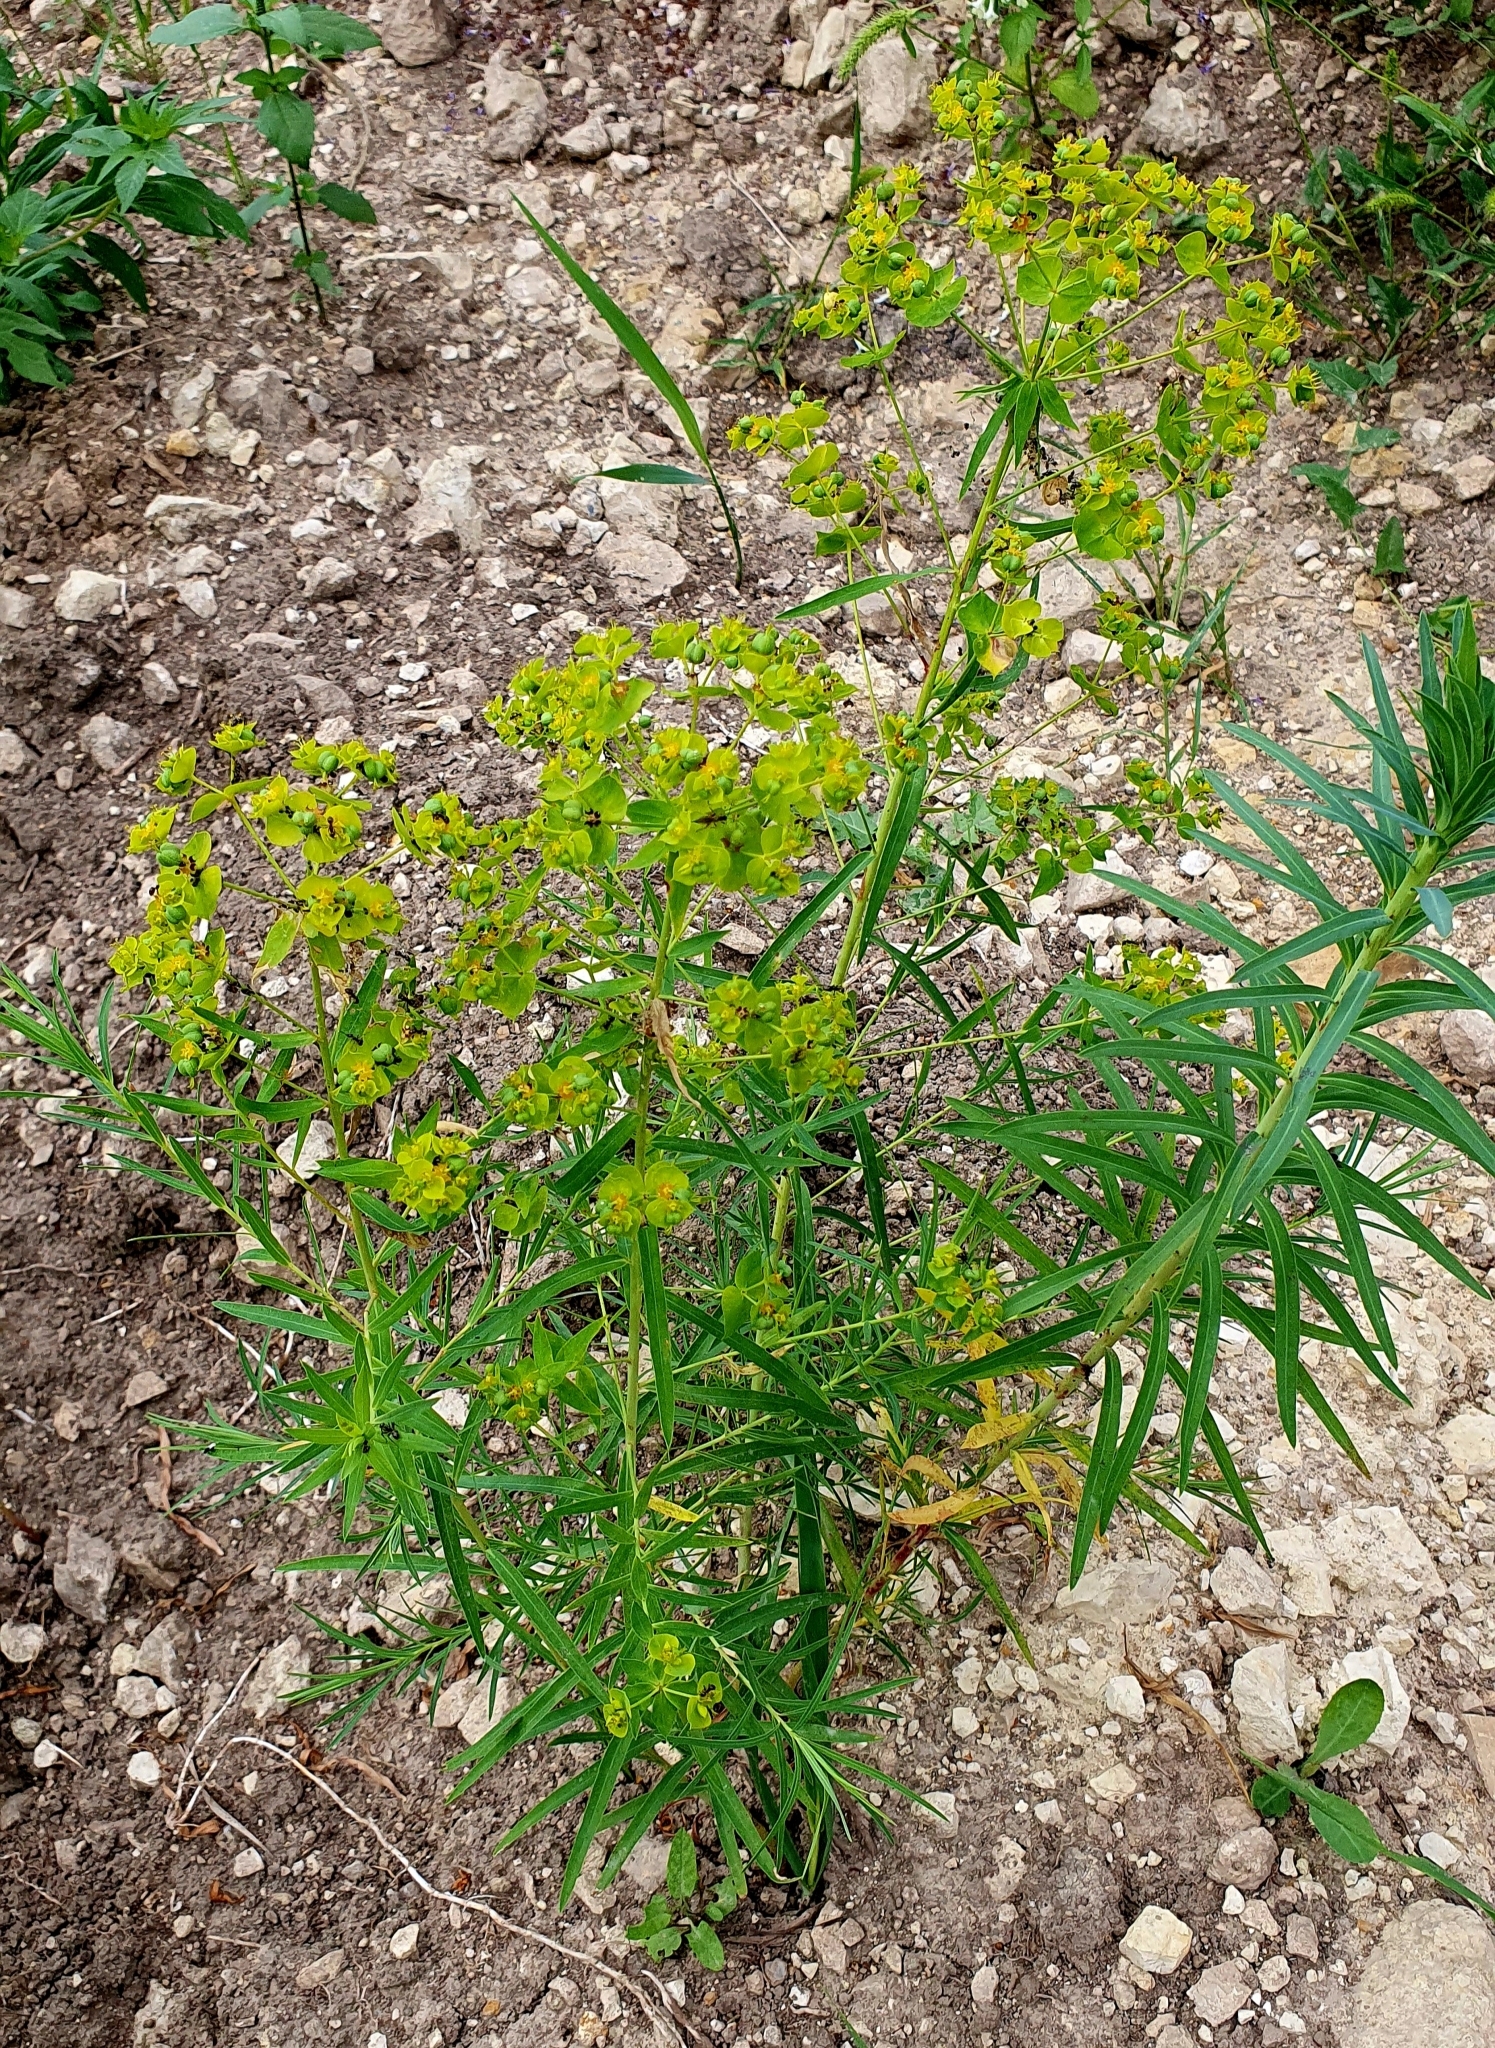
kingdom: Plantae
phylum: Tracheophyta
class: Magnoliopsida
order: Malpighiales
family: Euphorbiaceae
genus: Euphorbia
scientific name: Euphorbia virgata
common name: Leafy spurge
